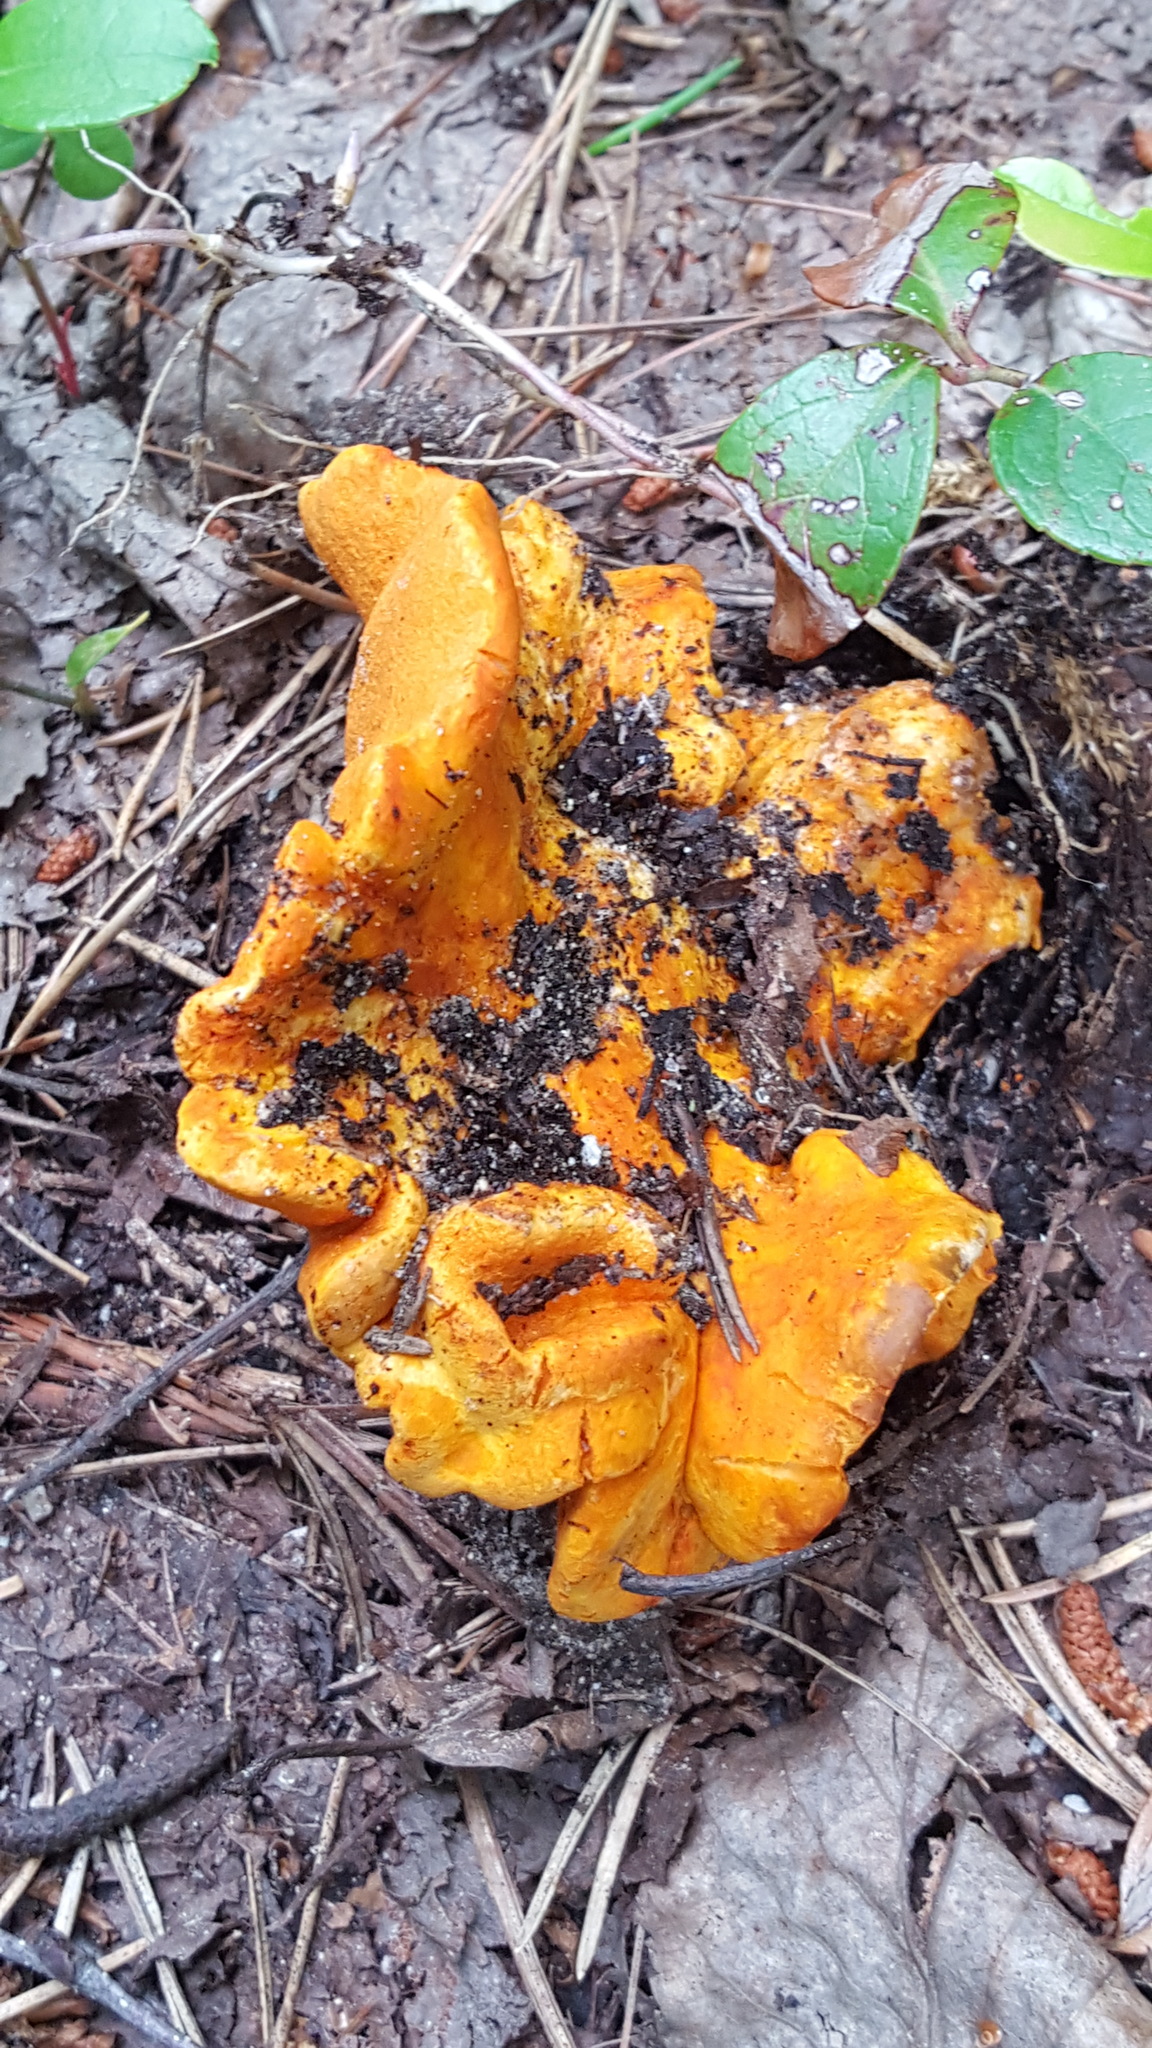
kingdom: Fungi
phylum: Ascomycota
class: Sordariomycetes
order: Hypocreales
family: Hypocreaceae
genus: Hypomyces
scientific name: Hypomyces lactifluorum
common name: Lobster mushroom
